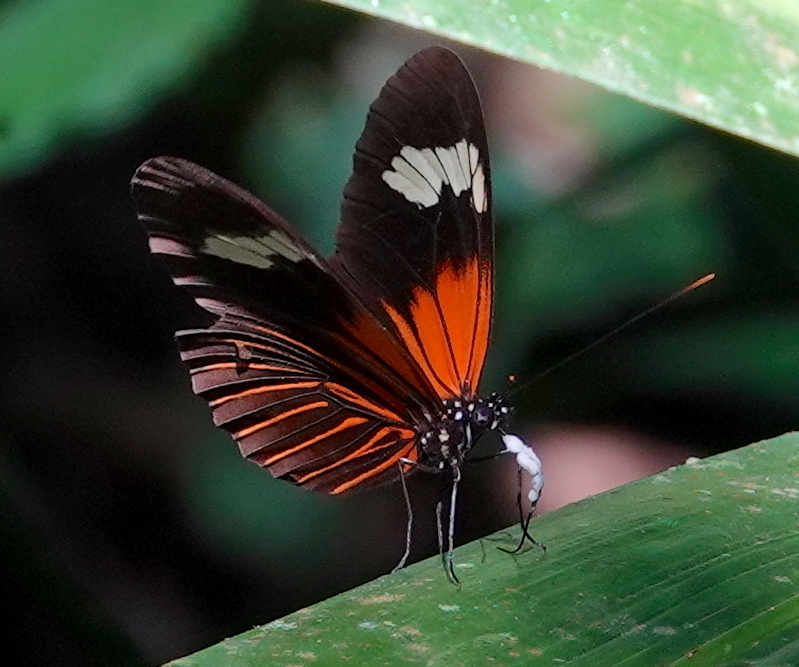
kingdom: Animalia
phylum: Arthropoda
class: Insecta
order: Lepidoptera
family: Nymphalidae
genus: Heliconius
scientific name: Heliconius erato
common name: Common patch longwing
